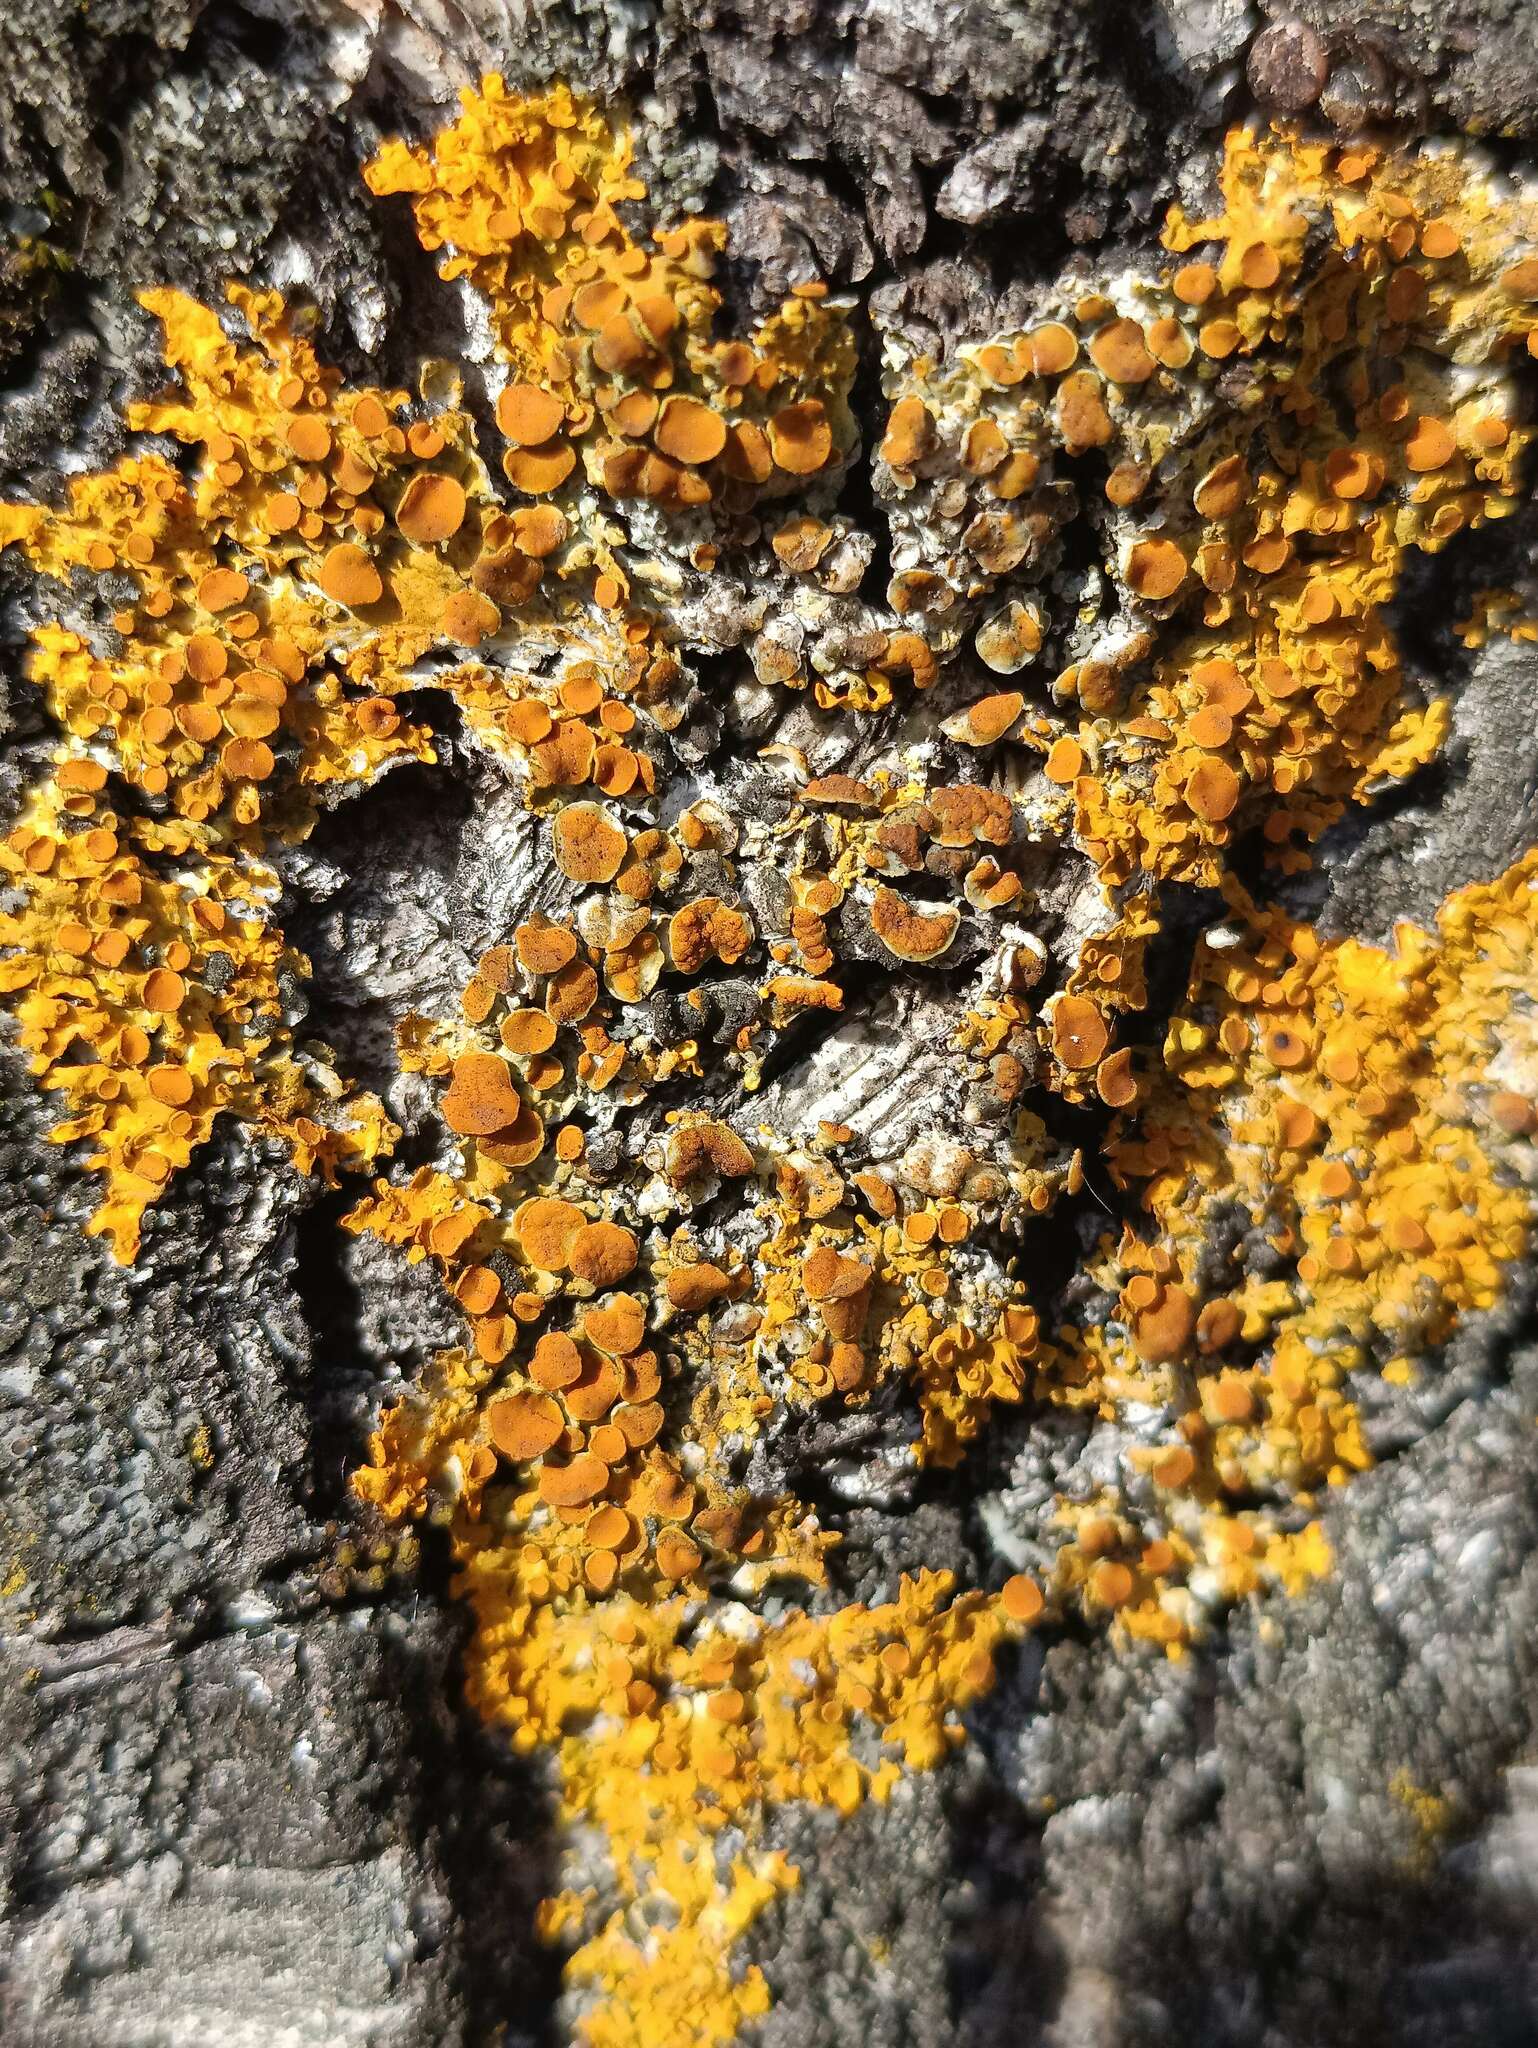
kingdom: Fungi
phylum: Ascomycota
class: Lecanoromycetes
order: Teloschistales
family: Teloschistaceae
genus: Xanthoria
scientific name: Xanthoria parietina
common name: Common orange lichen
